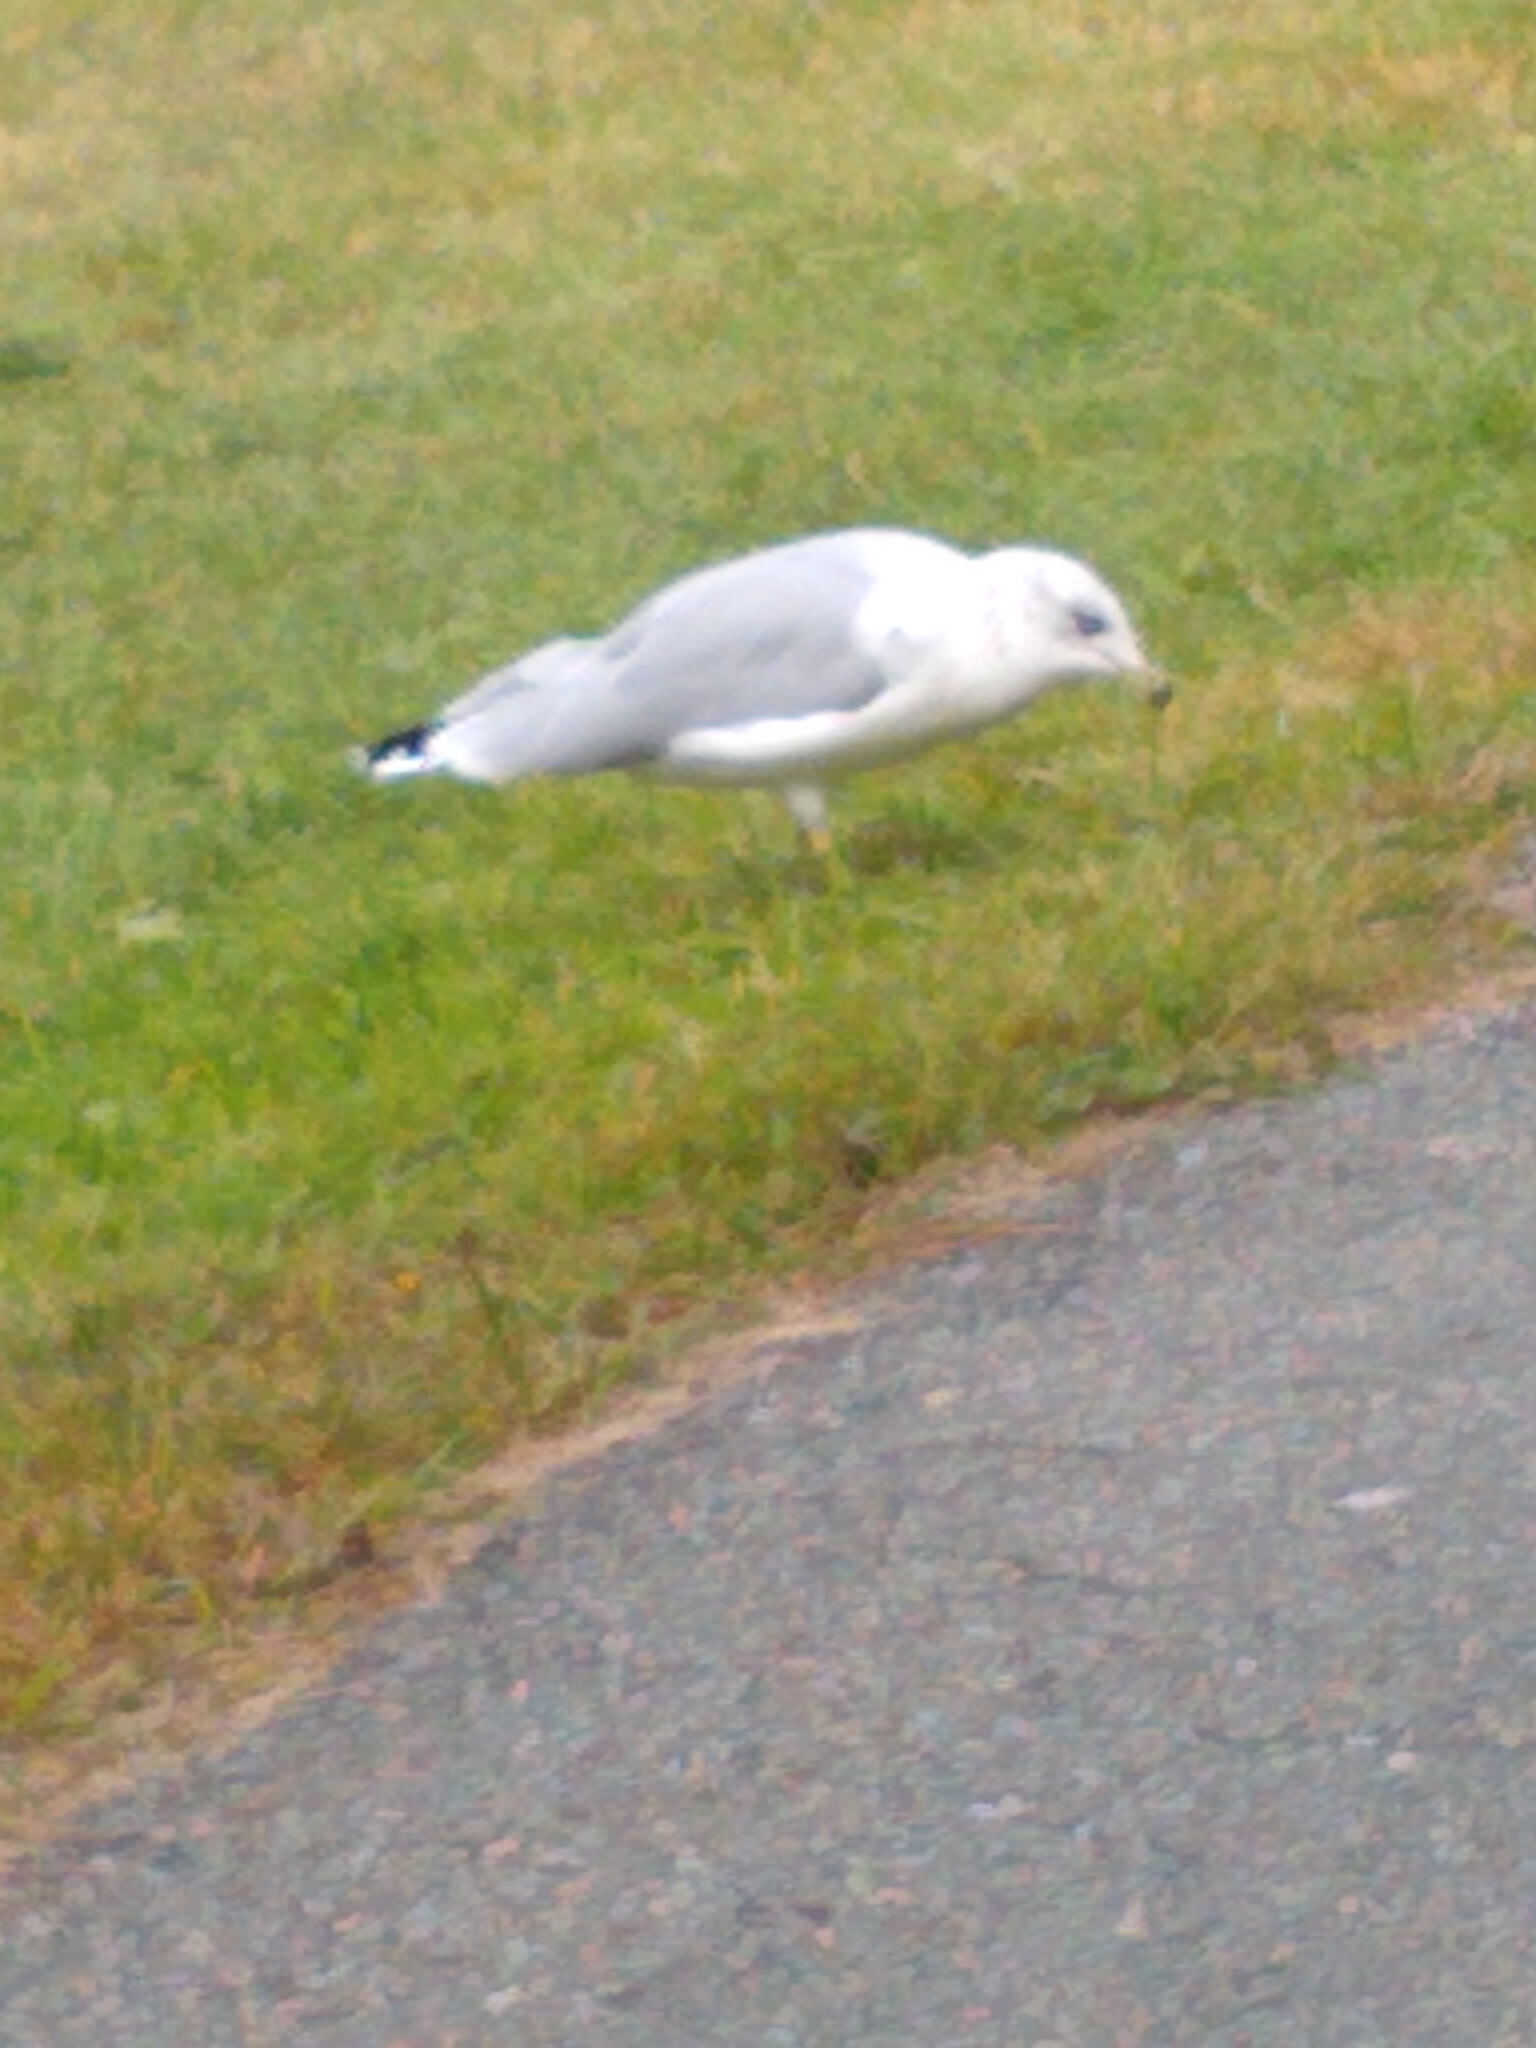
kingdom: Animalia
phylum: Chordata
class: Aves
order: Charadriiformes
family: Laridae
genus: Larus
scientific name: Larus delawarensis
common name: Ring-billed gull
